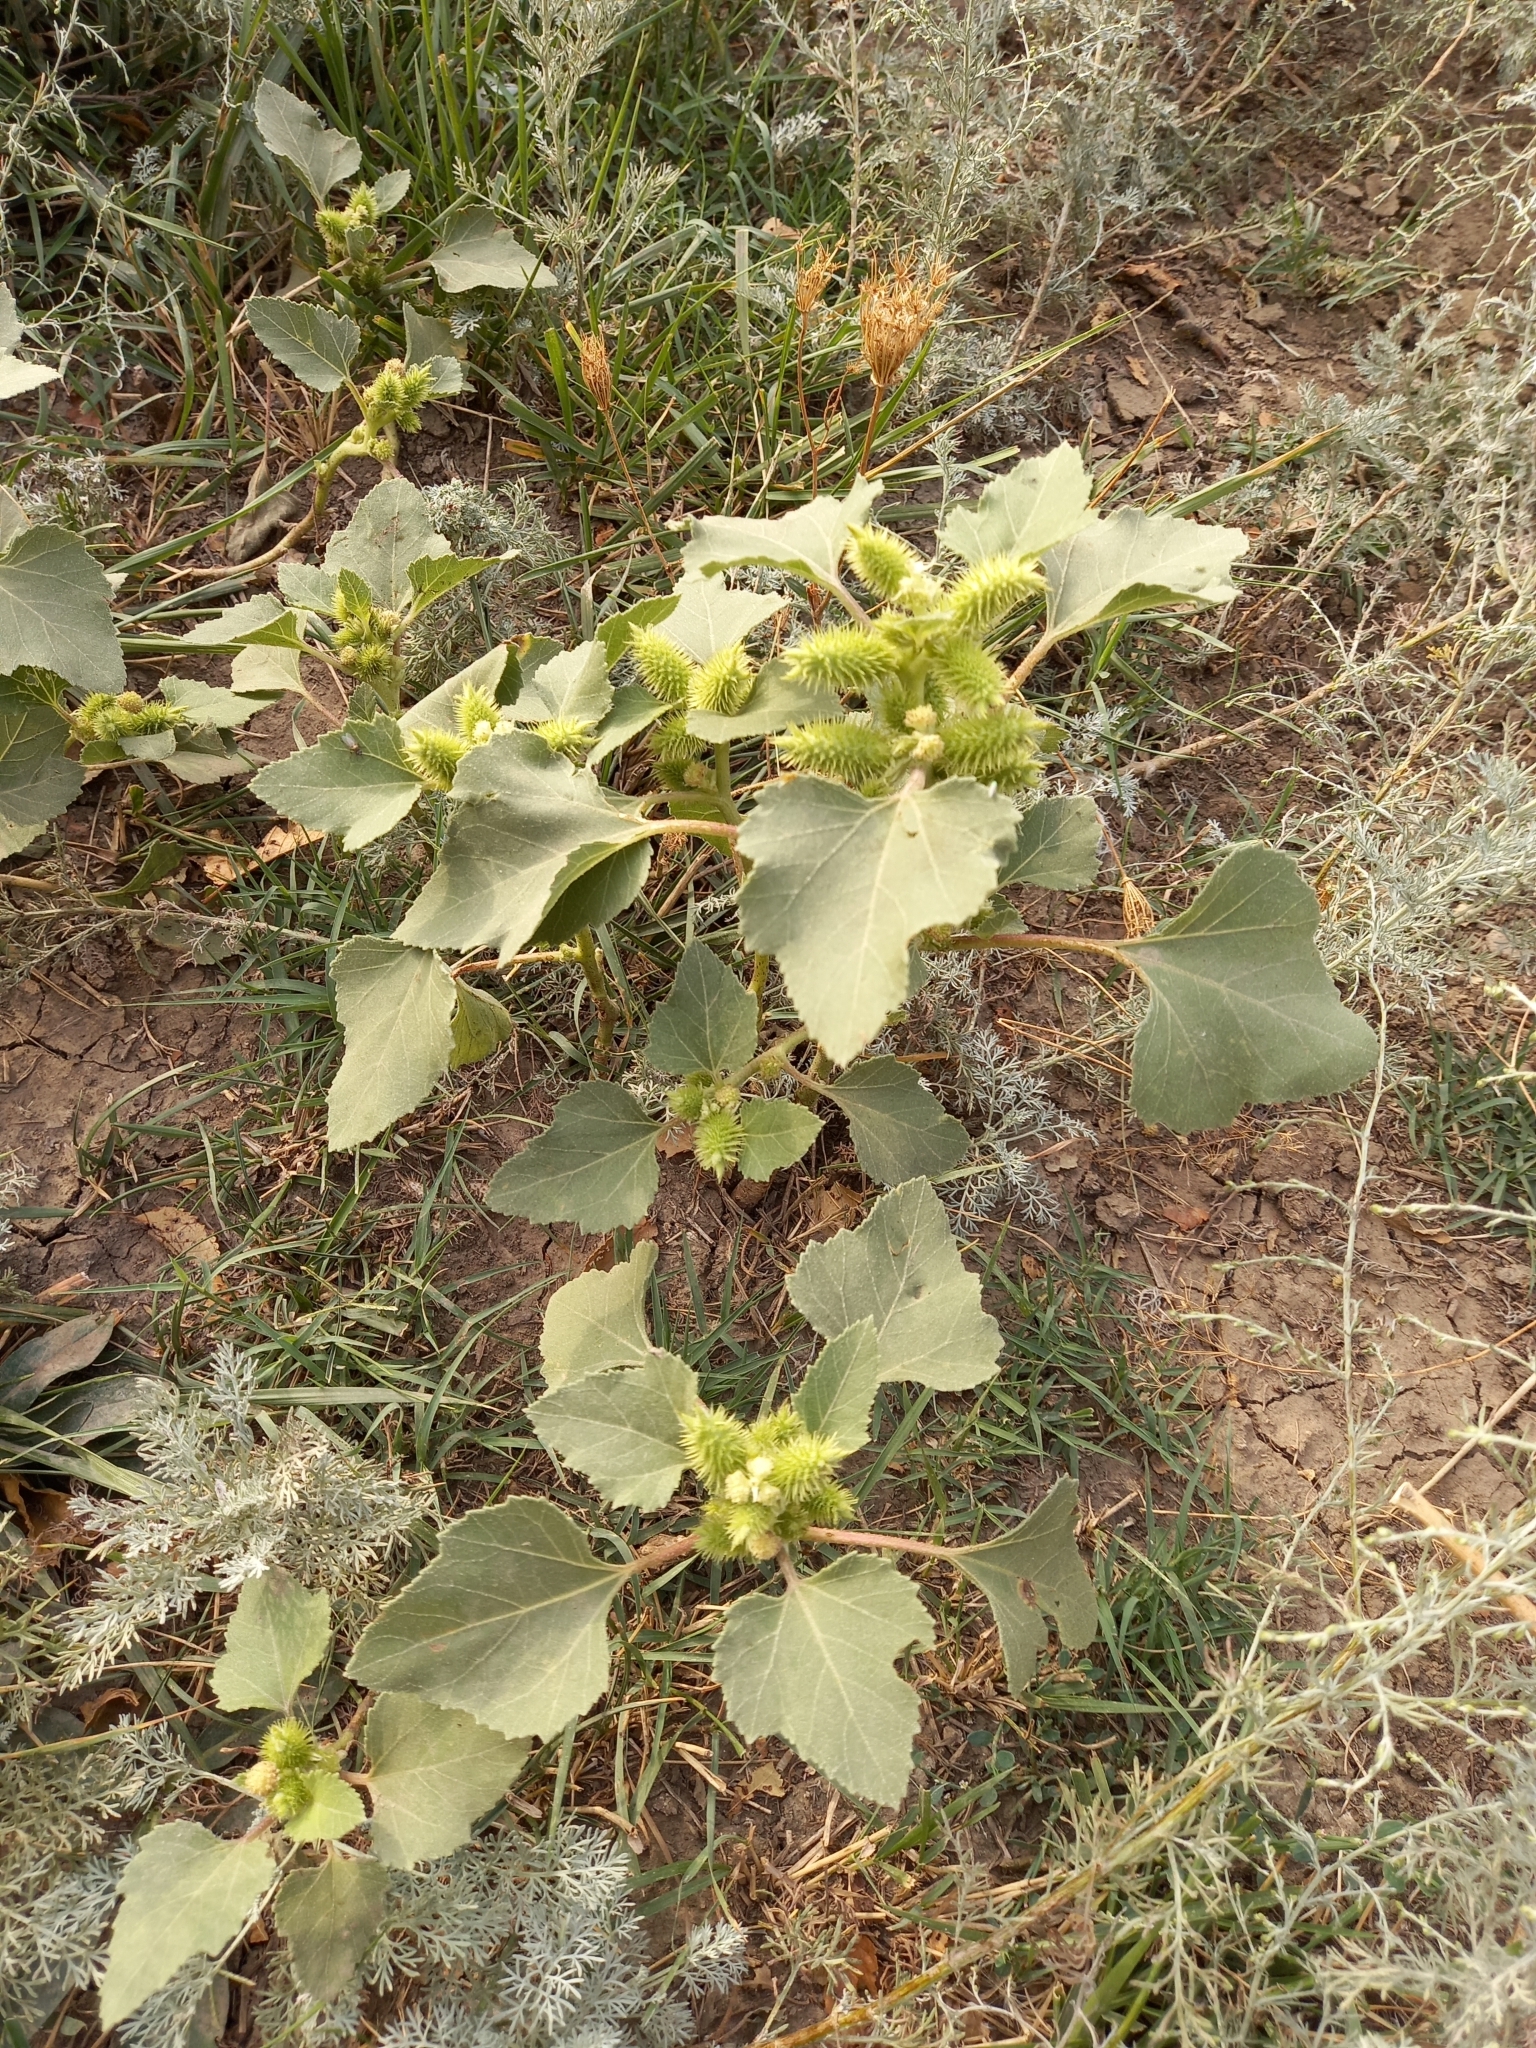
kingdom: Plantae
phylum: Tracheophyta
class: Magnoliopsida
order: Asterales
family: Asteraceae
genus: Xanthium
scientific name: Xanthium orientale
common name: Californian burr
